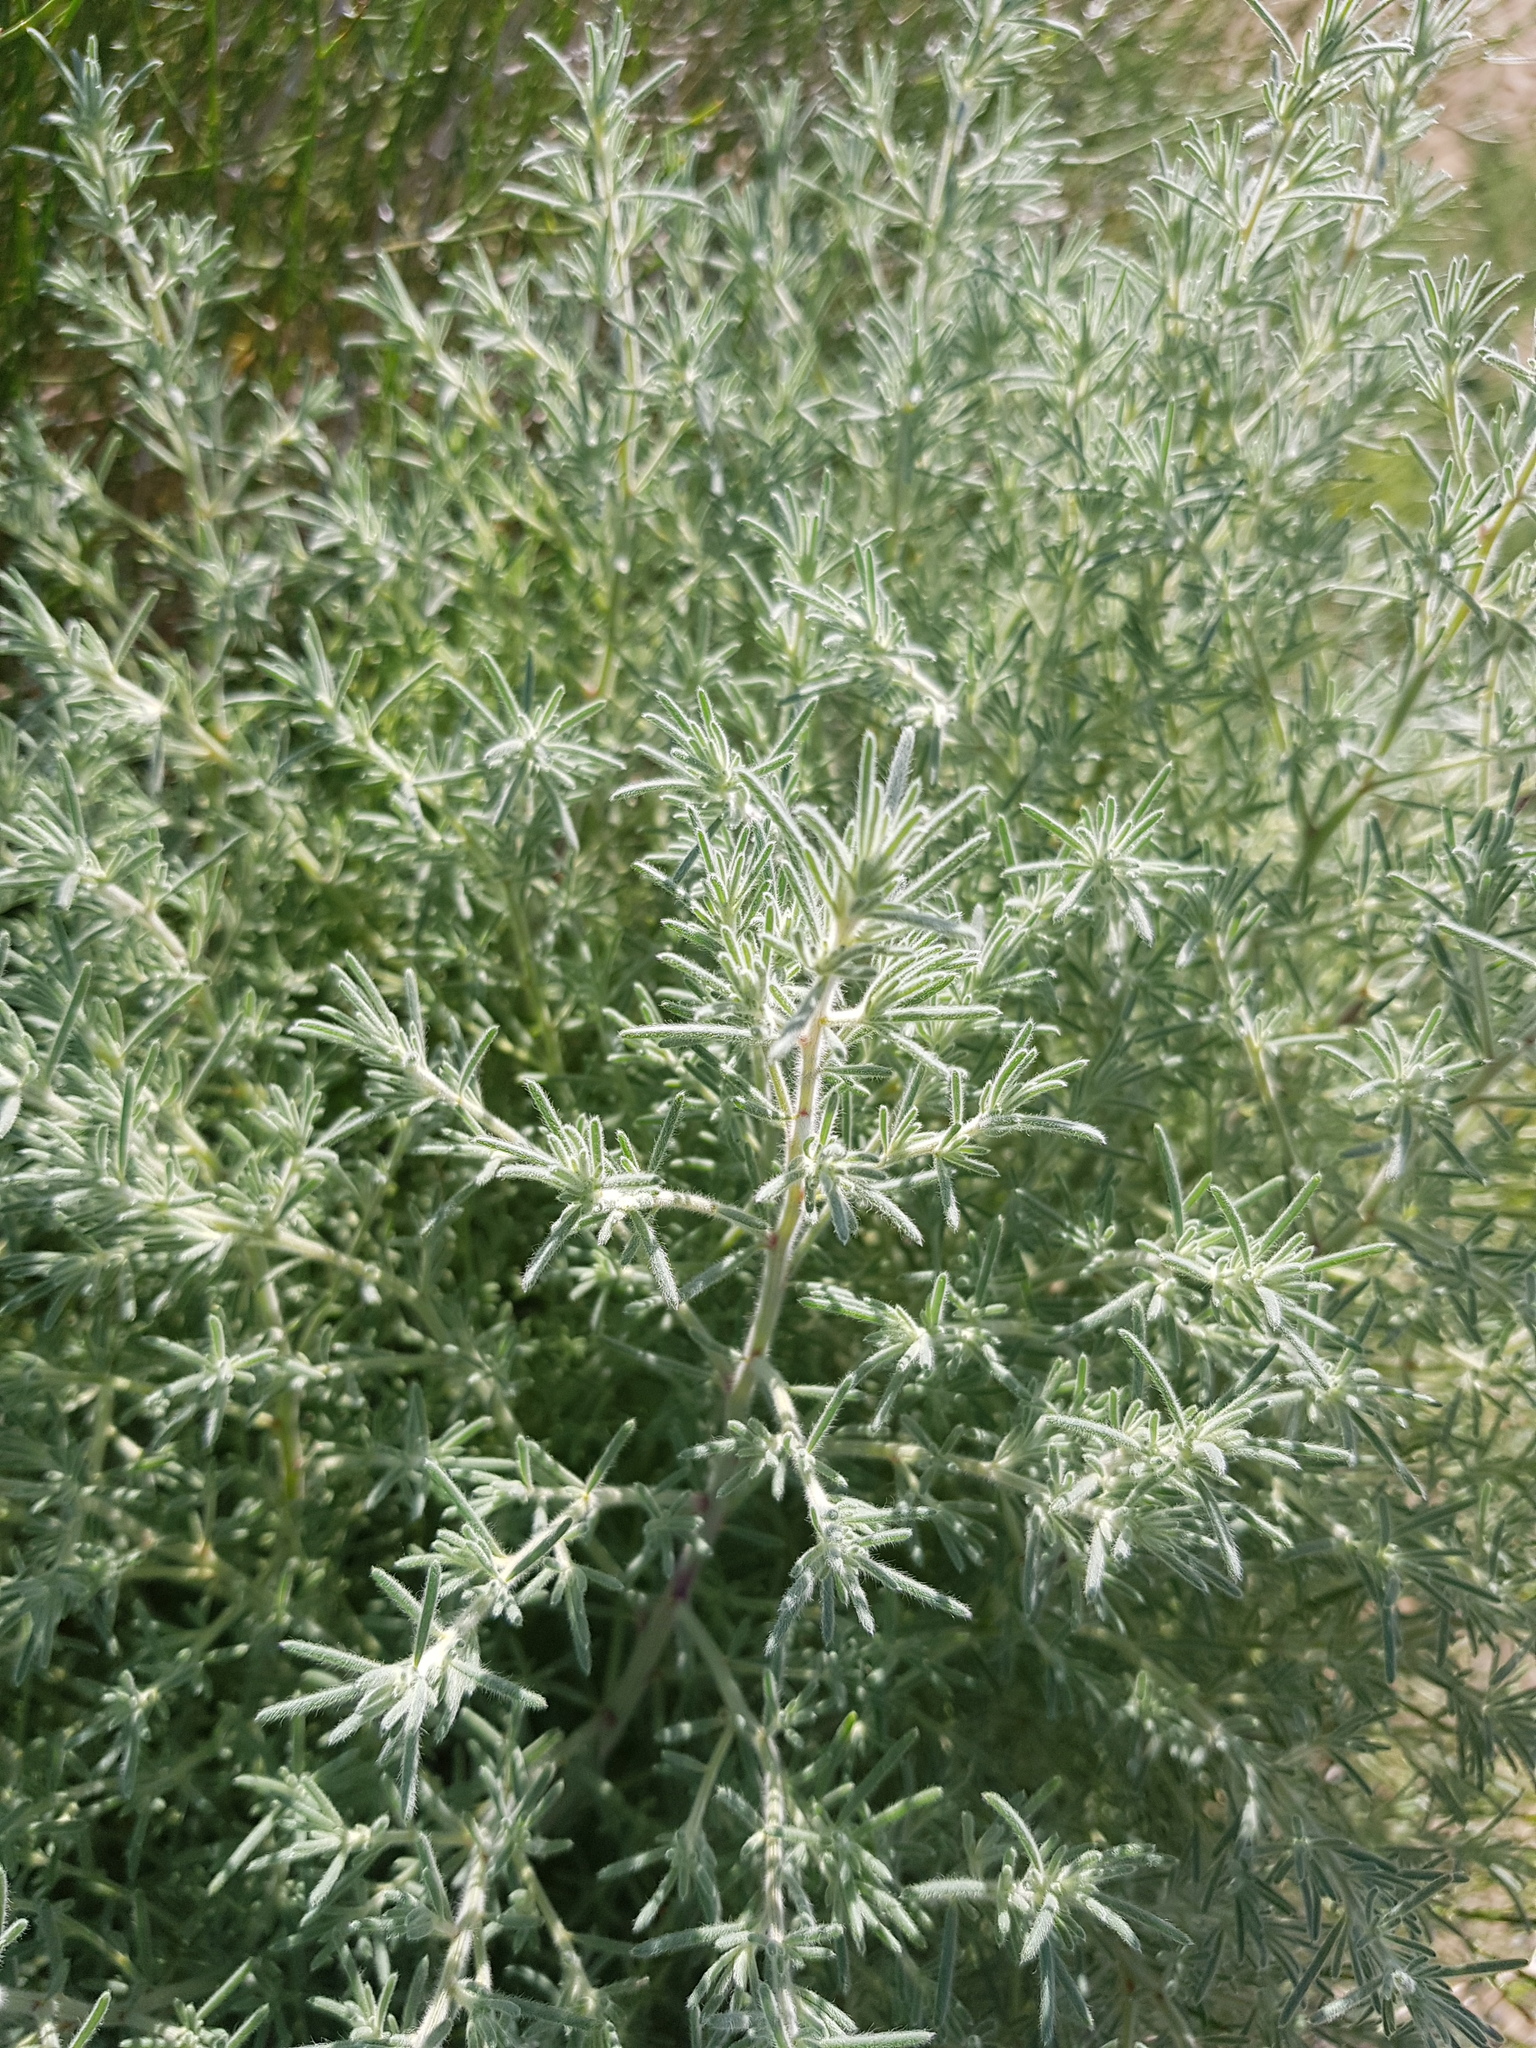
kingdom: Plantae
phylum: Tracheophyta
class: Magnoliopsida
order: Caryophyllales
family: Amaranthaceae
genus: Bassia
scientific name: Bassia prostrata
